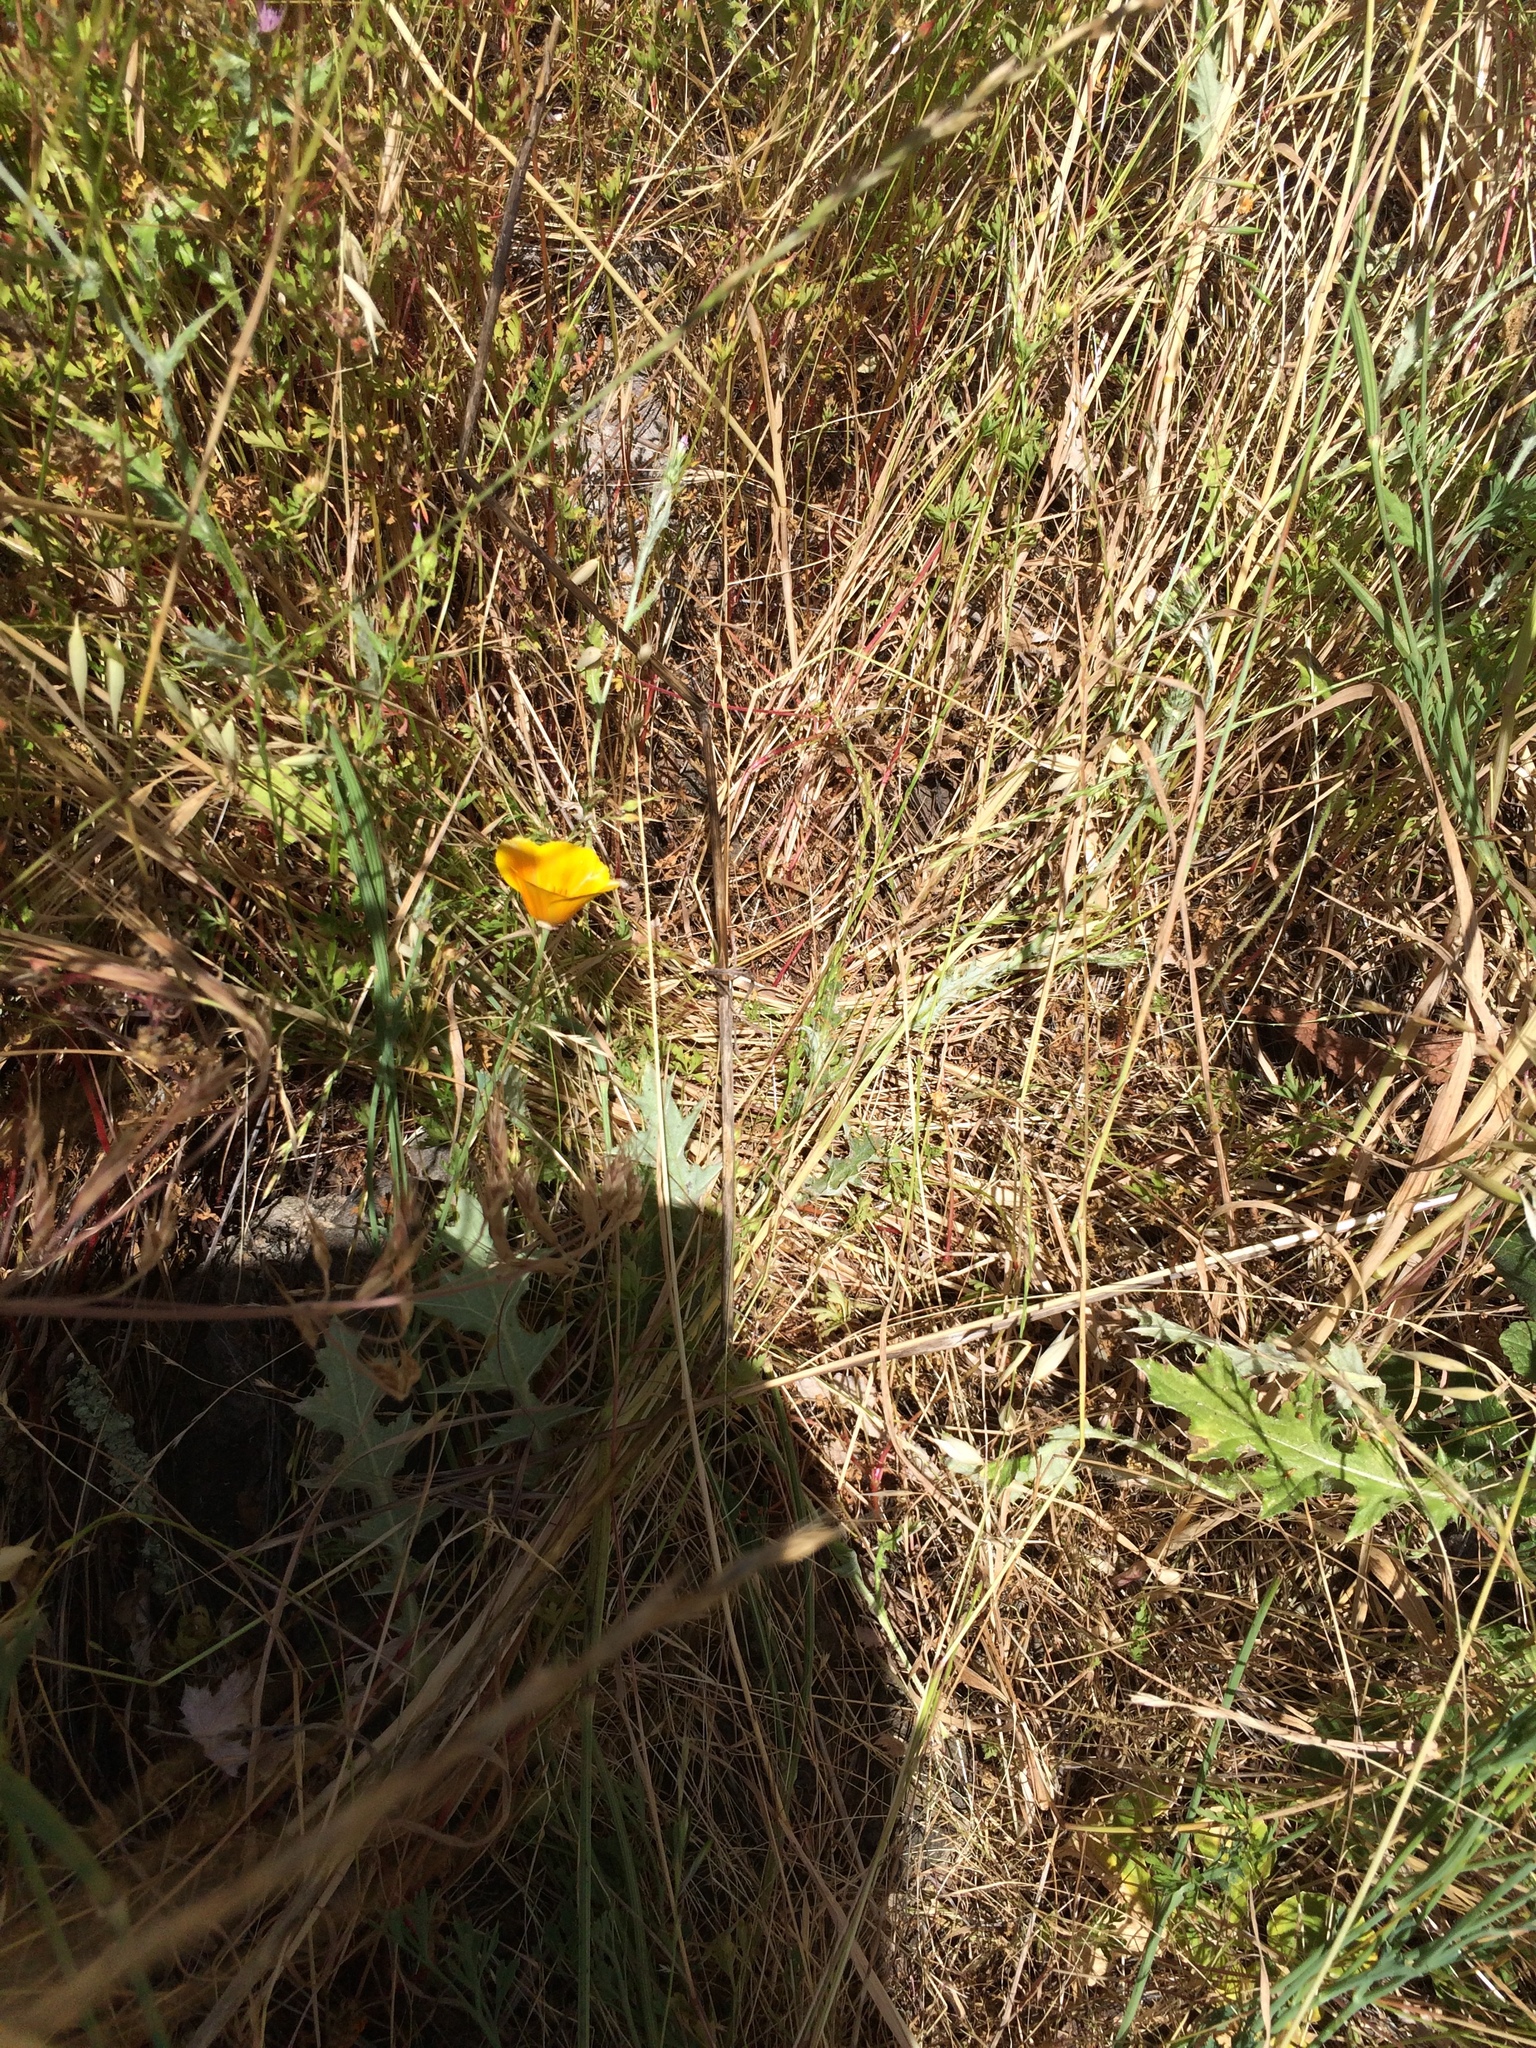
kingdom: Plantae
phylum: Tracheophyta
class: Magnoliopsida
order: Ranunculales
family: Papaveraceae
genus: Eschscholzia
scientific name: Eschscholzia californica
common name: California poppy
